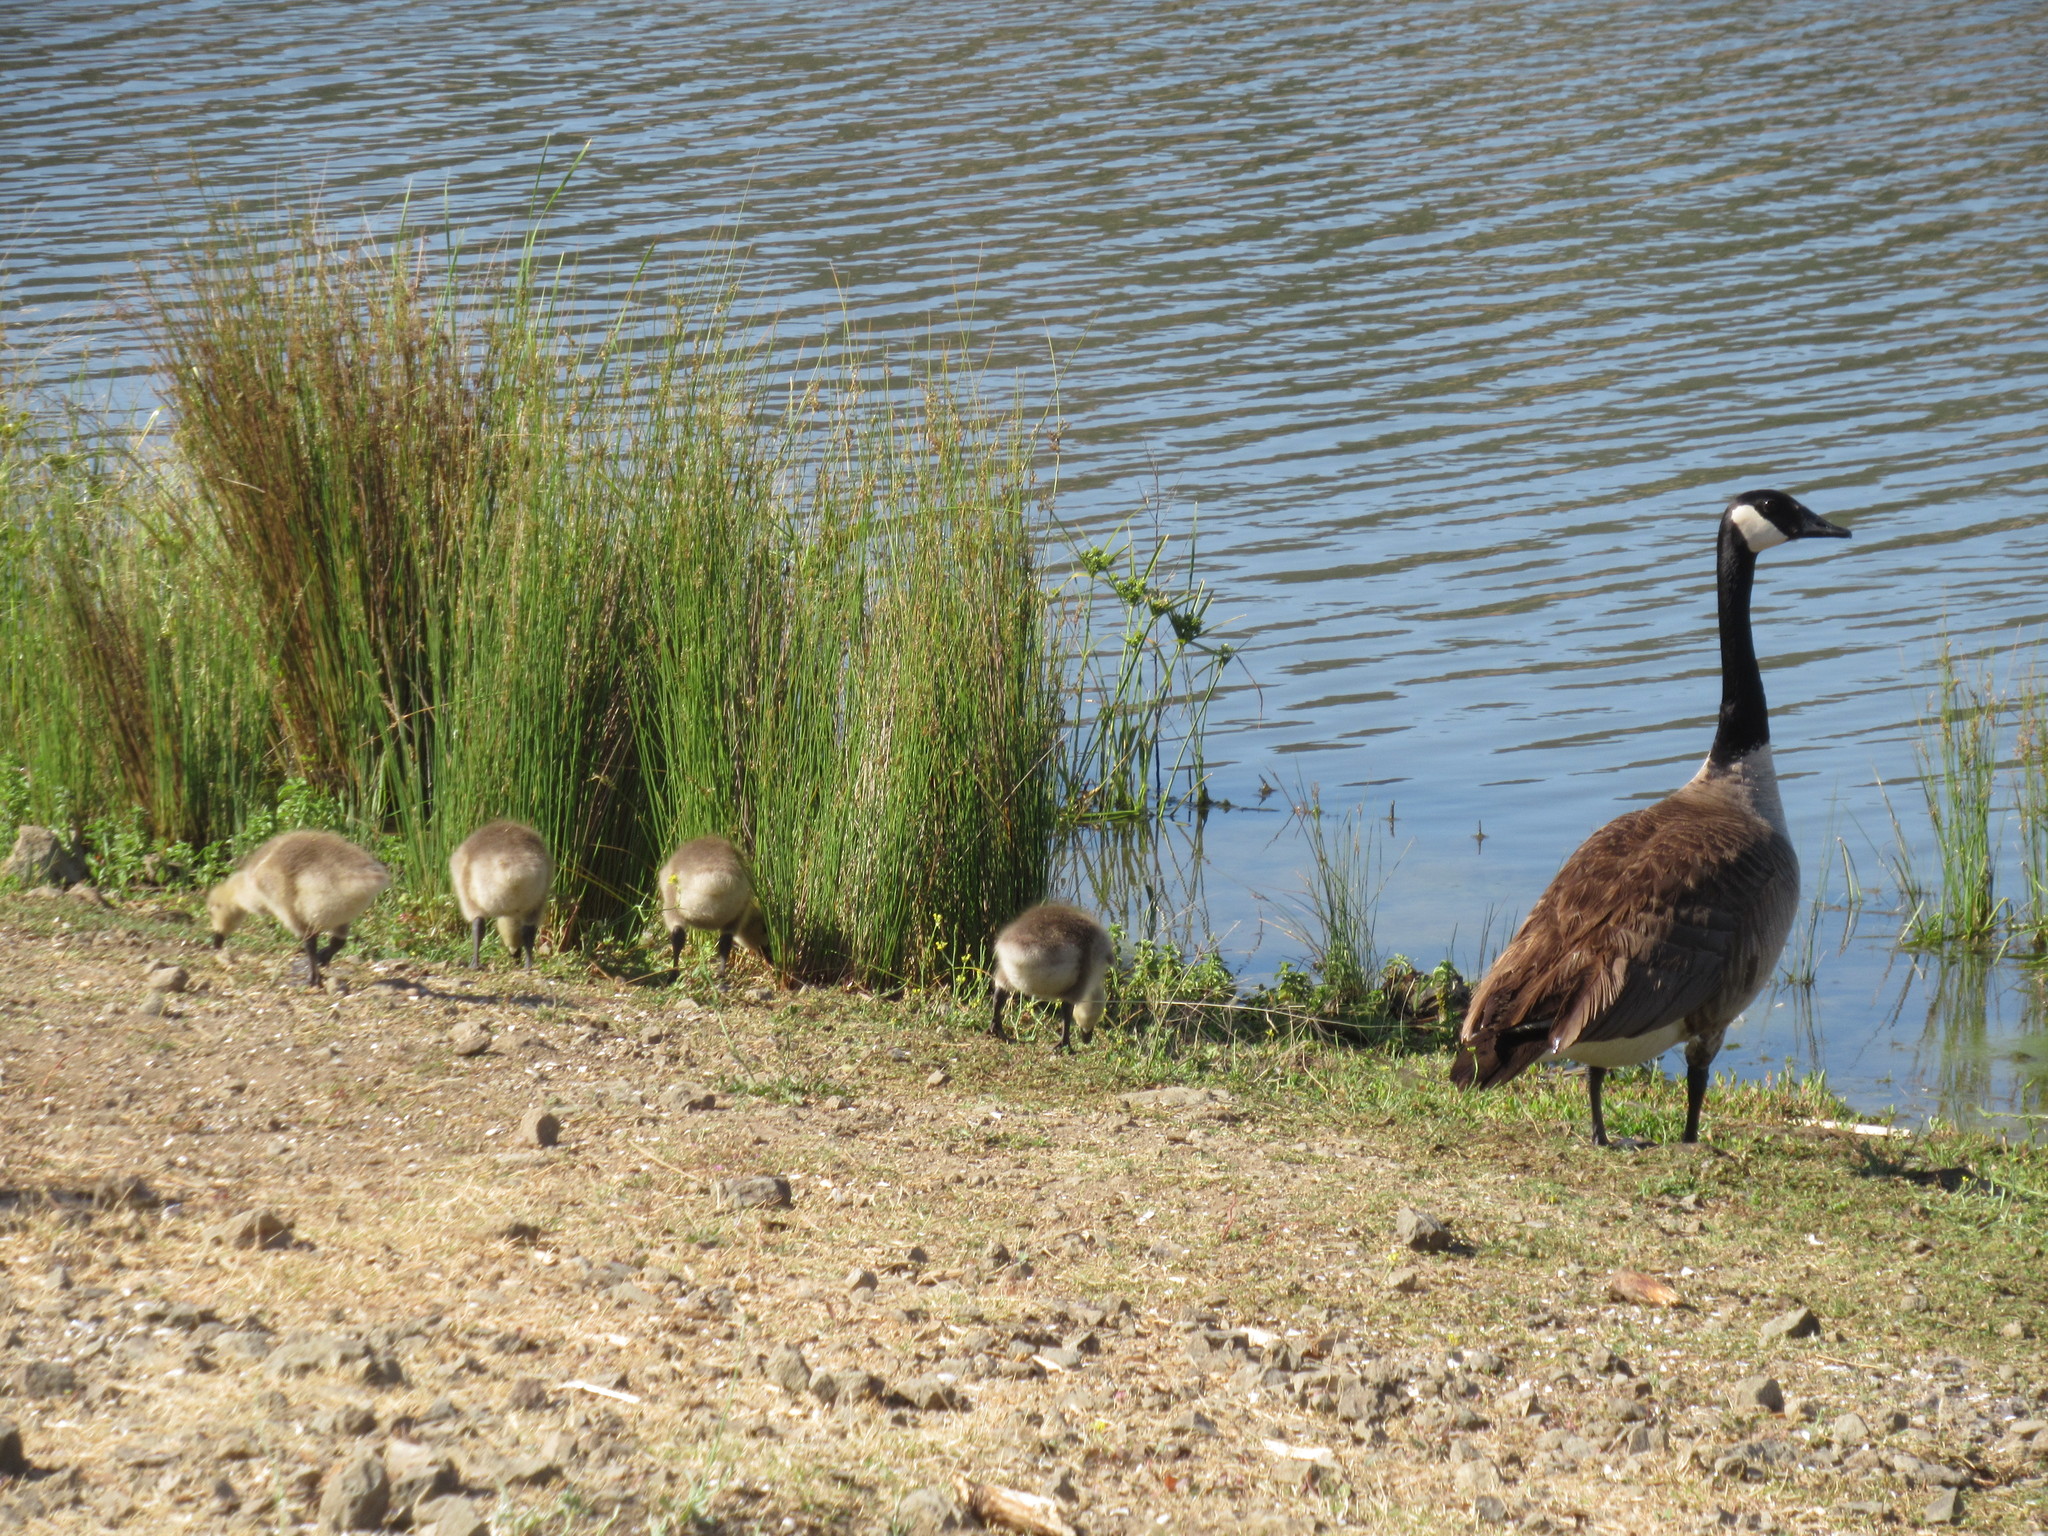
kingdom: Animalia
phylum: Chordata
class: Aves
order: Anseriformes
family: Anatidae
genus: Branta
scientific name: Branta canadensis
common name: Canada goose
